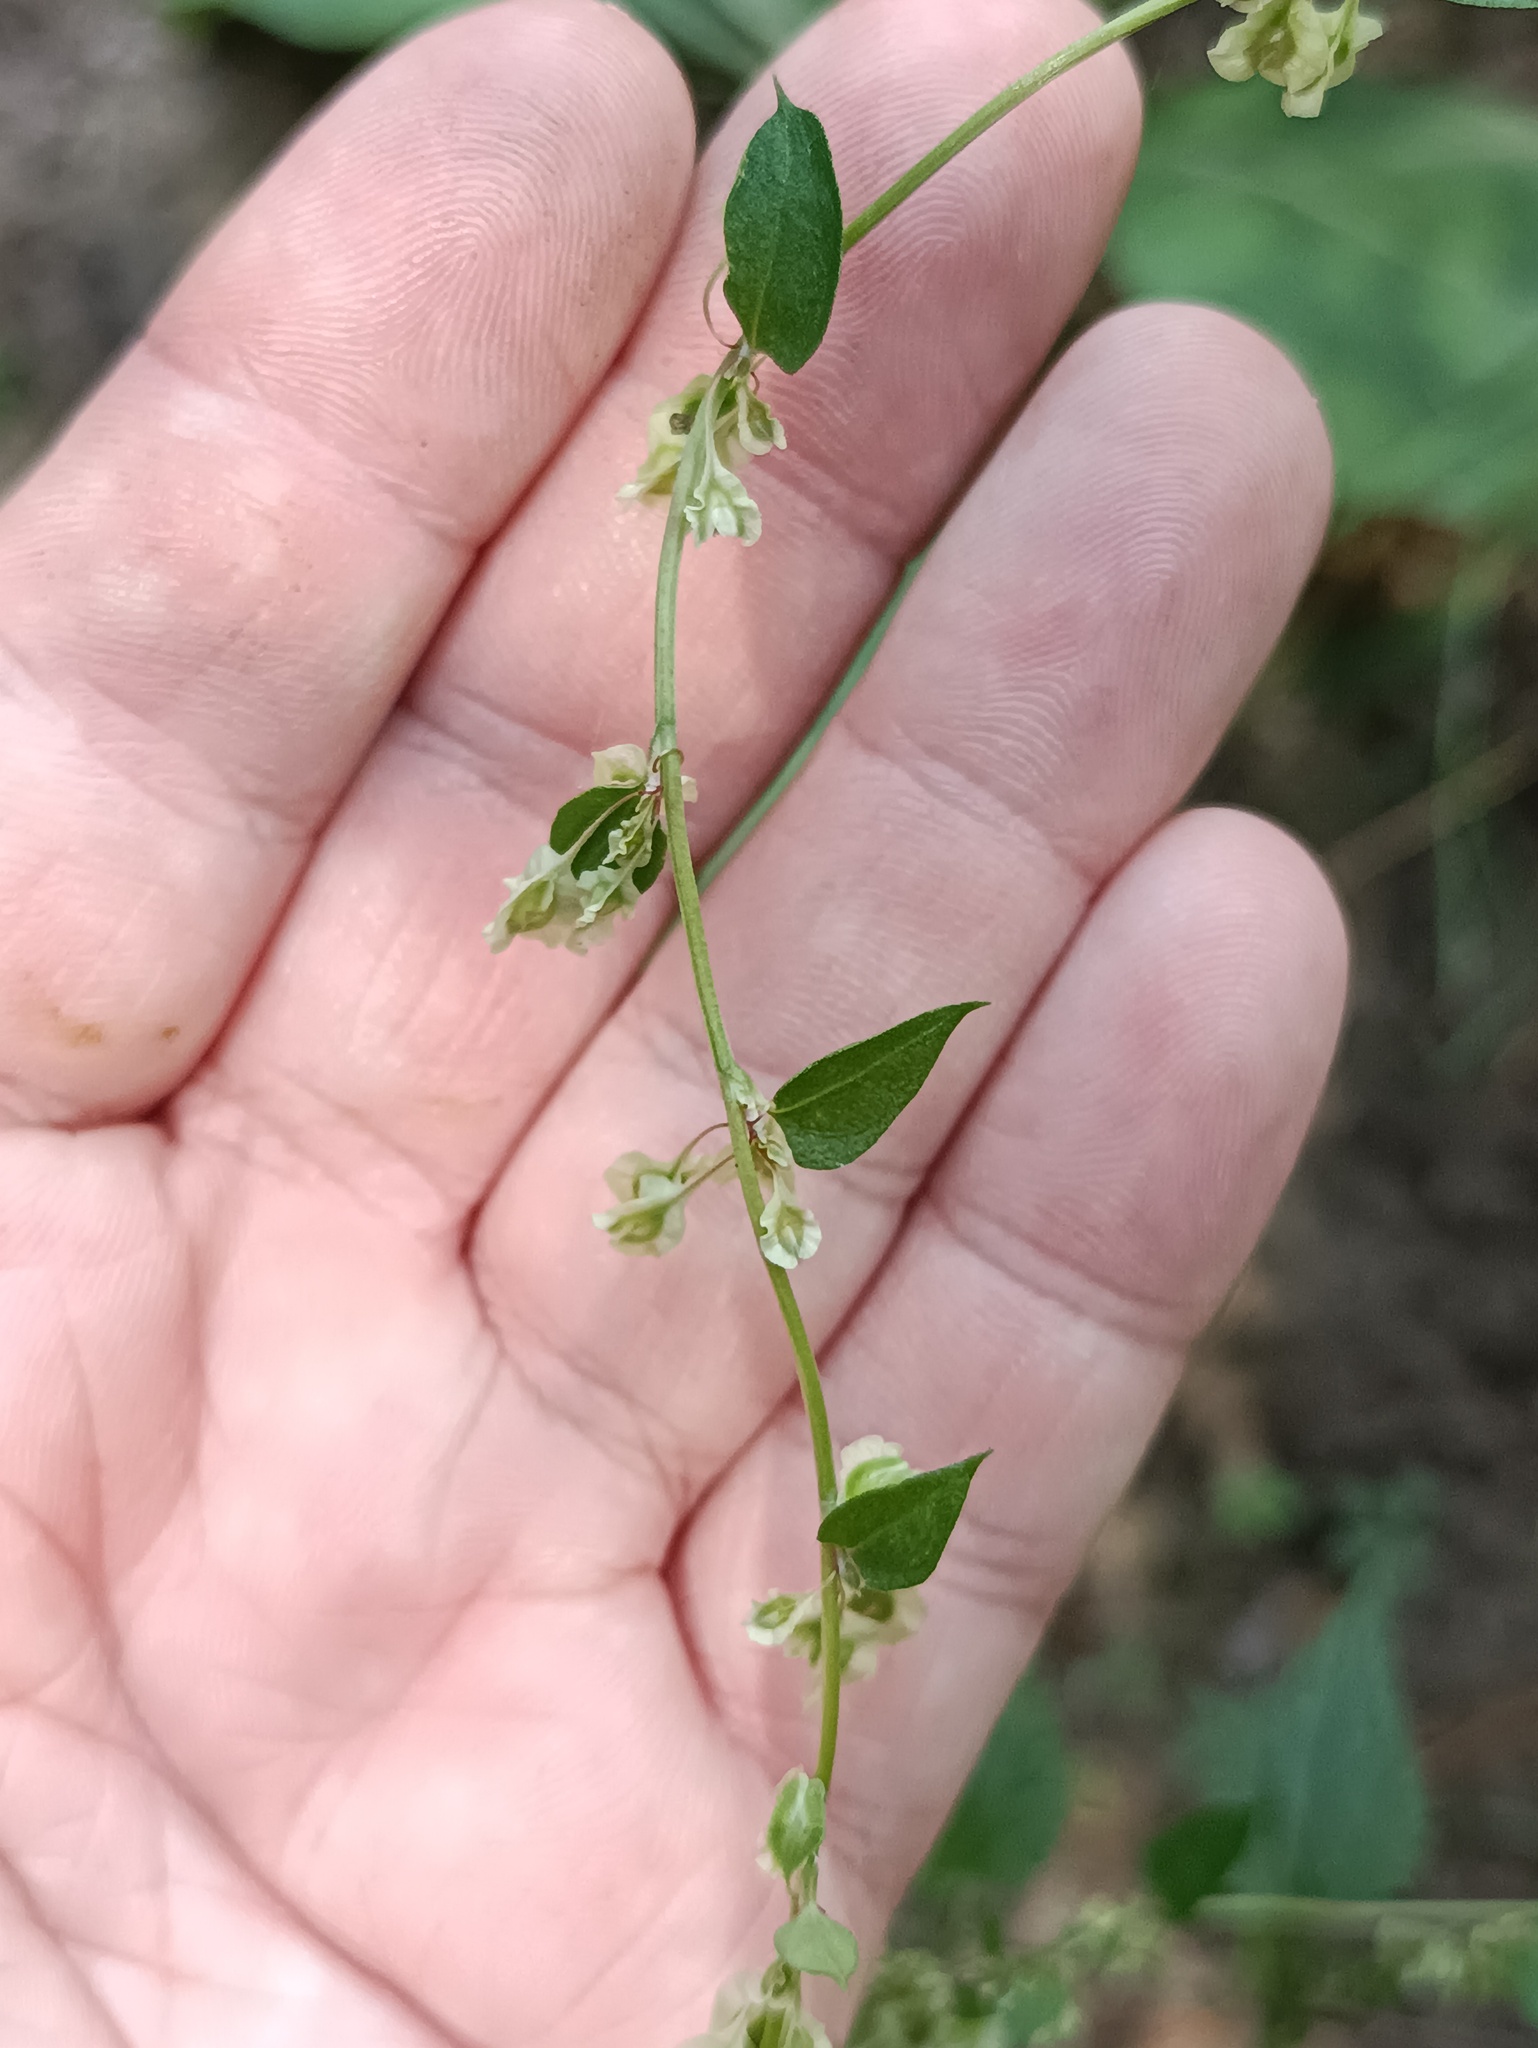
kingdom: Plantae
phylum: Tracheophyta
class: Magnoliopsida
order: Caryophyllales
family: Polygonaceae
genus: Fallopia
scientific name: Fallopia dumetorum
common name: Copse-bindweed
